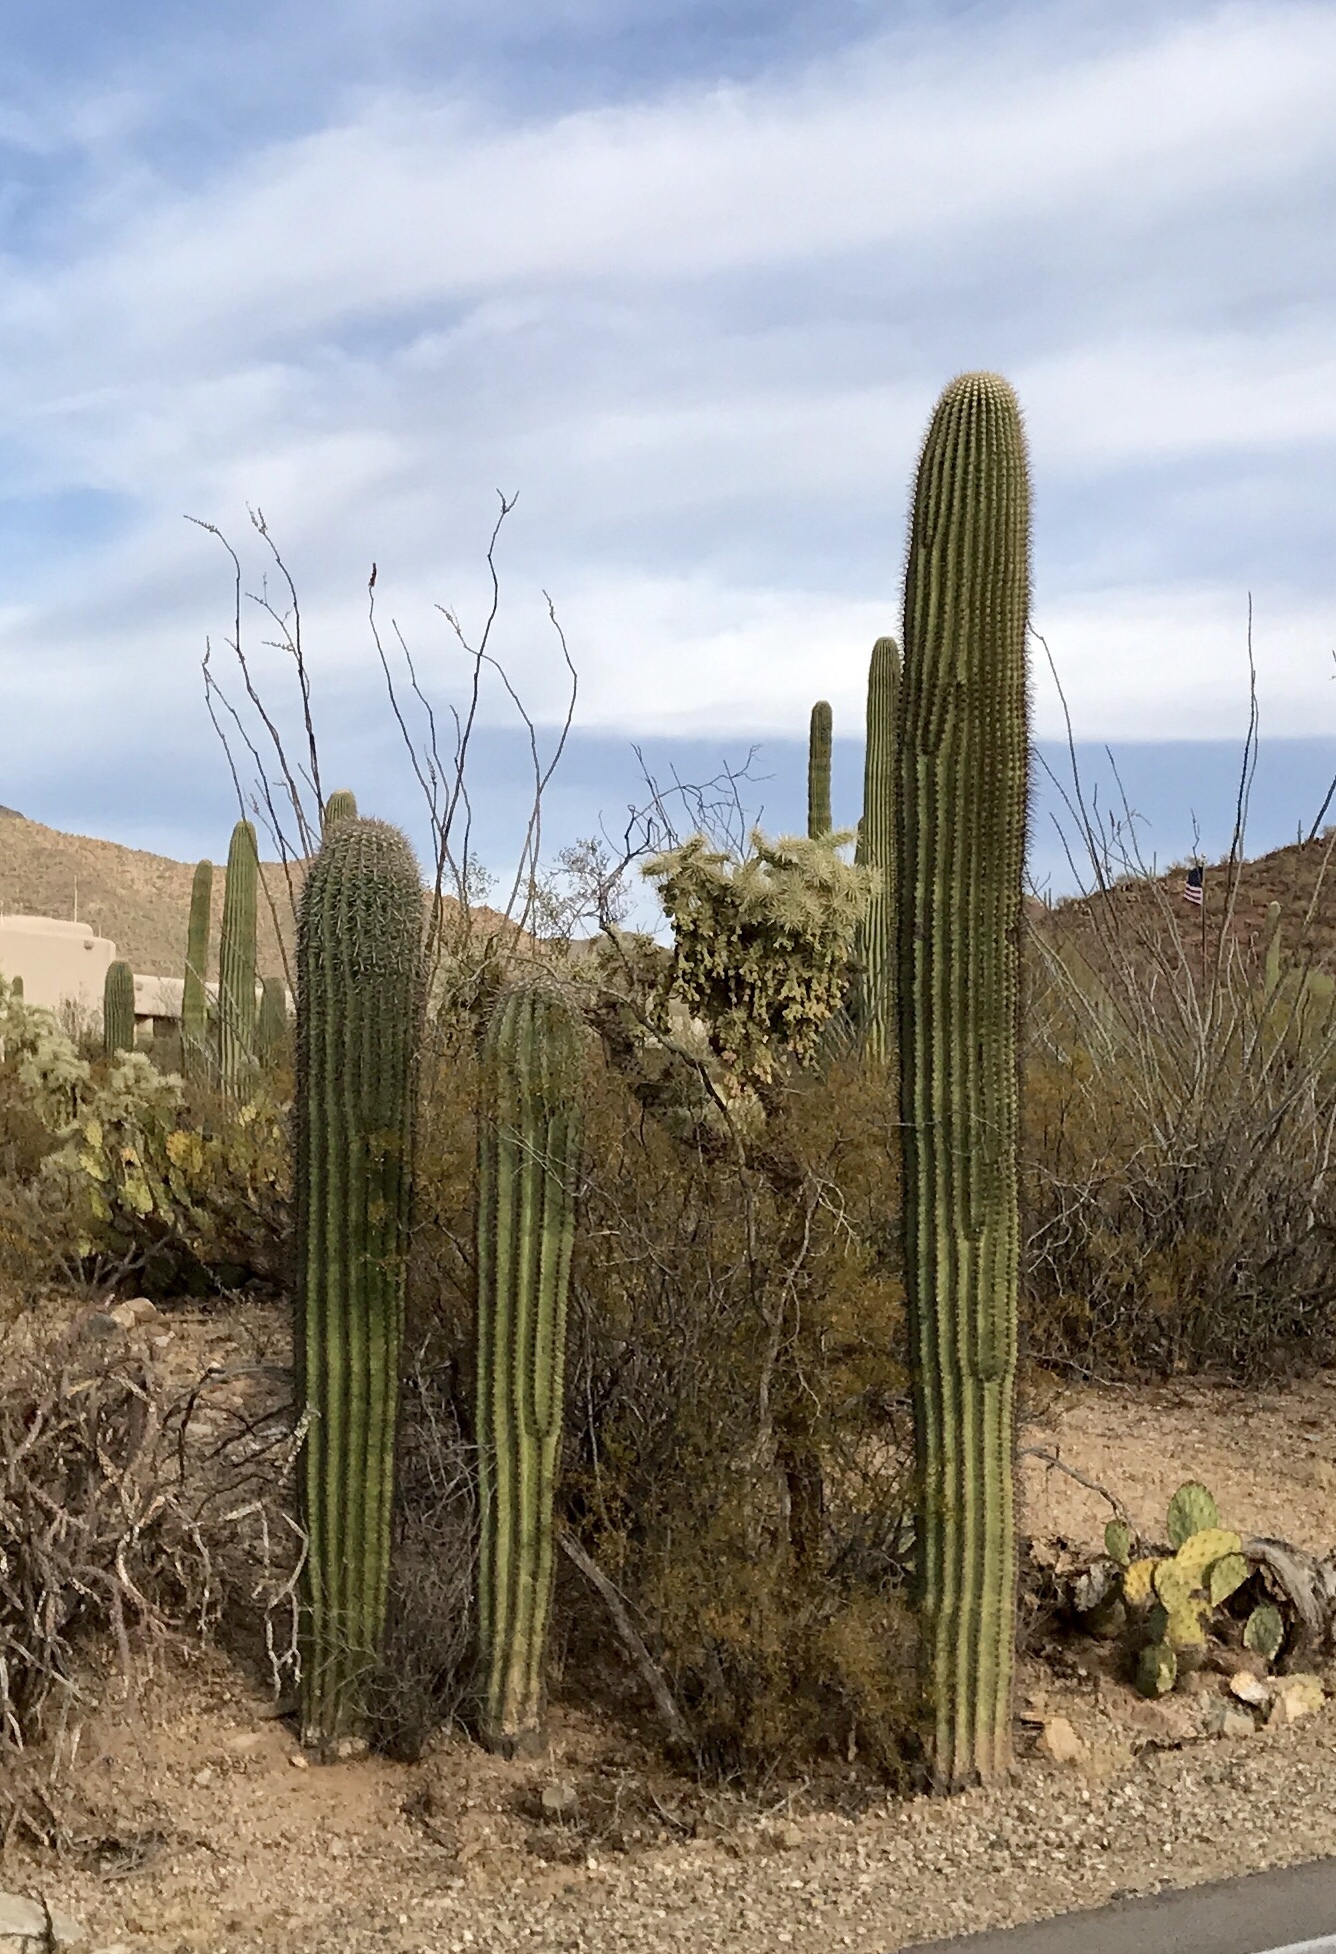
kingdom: Plantae
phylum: Tracheophyta
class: Magnoliopsida
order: Caryophyllales
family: Cactaceae
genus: Carnegiea
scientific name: Carnegiea gigantea
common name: Saguaro
